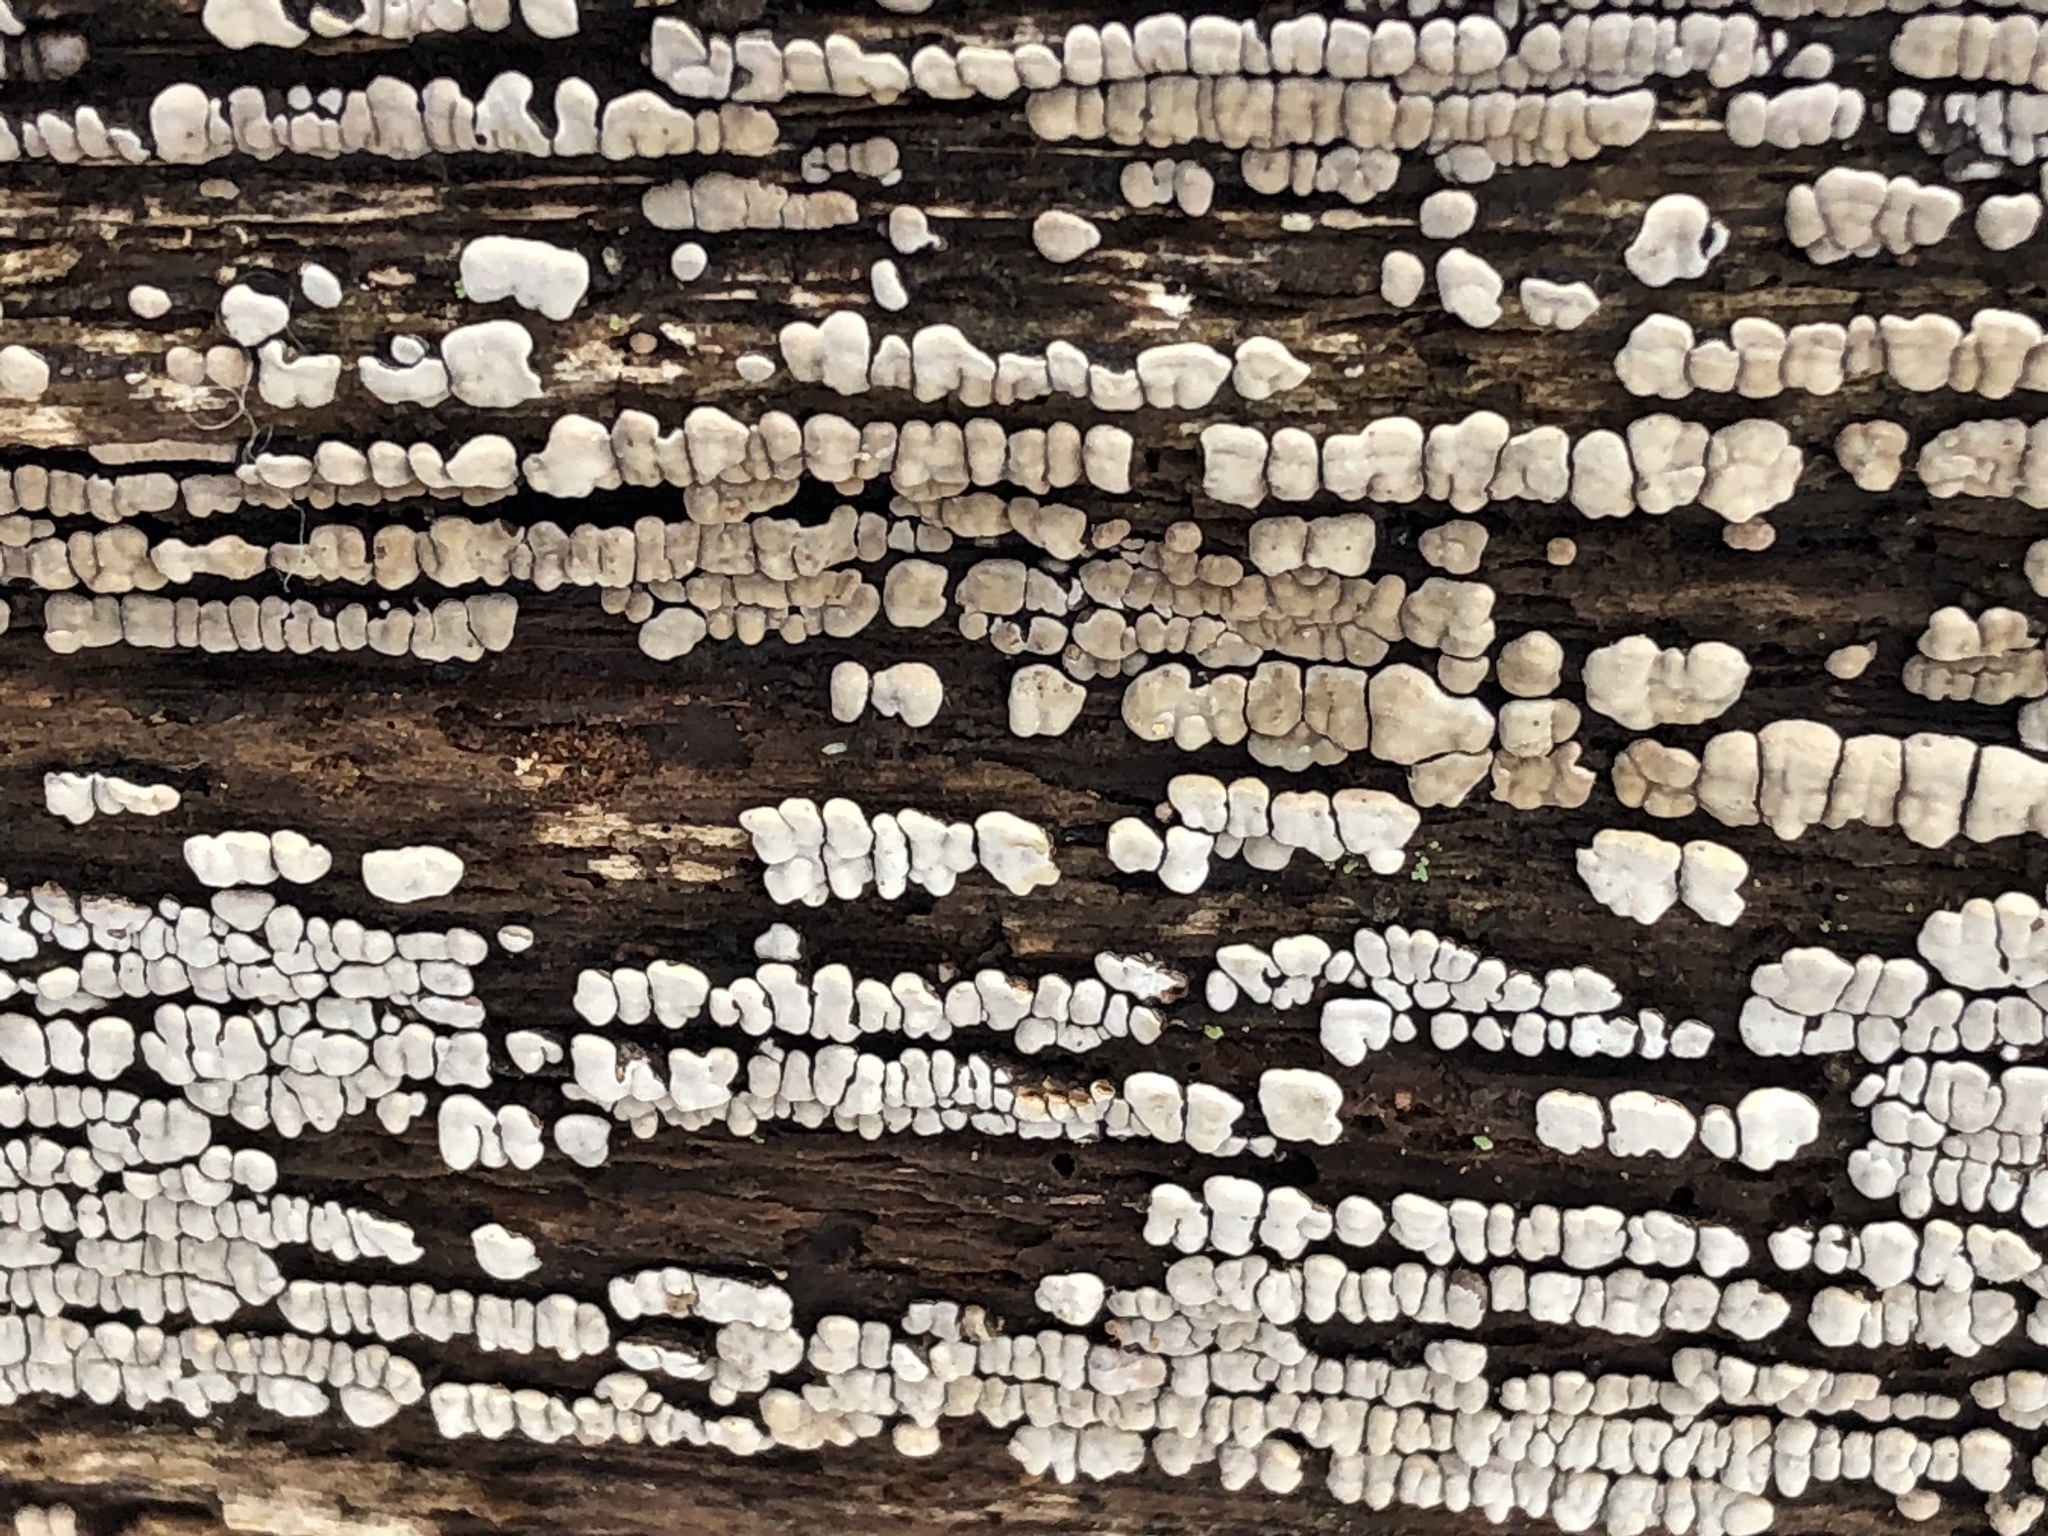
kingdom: Fungi
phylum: Basidiomycota
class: Agaricomycetes
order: Russulales
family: Stereaceae
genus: Xylobolus
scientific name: Xylobolus frustulatus
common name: Ceramic parchment
